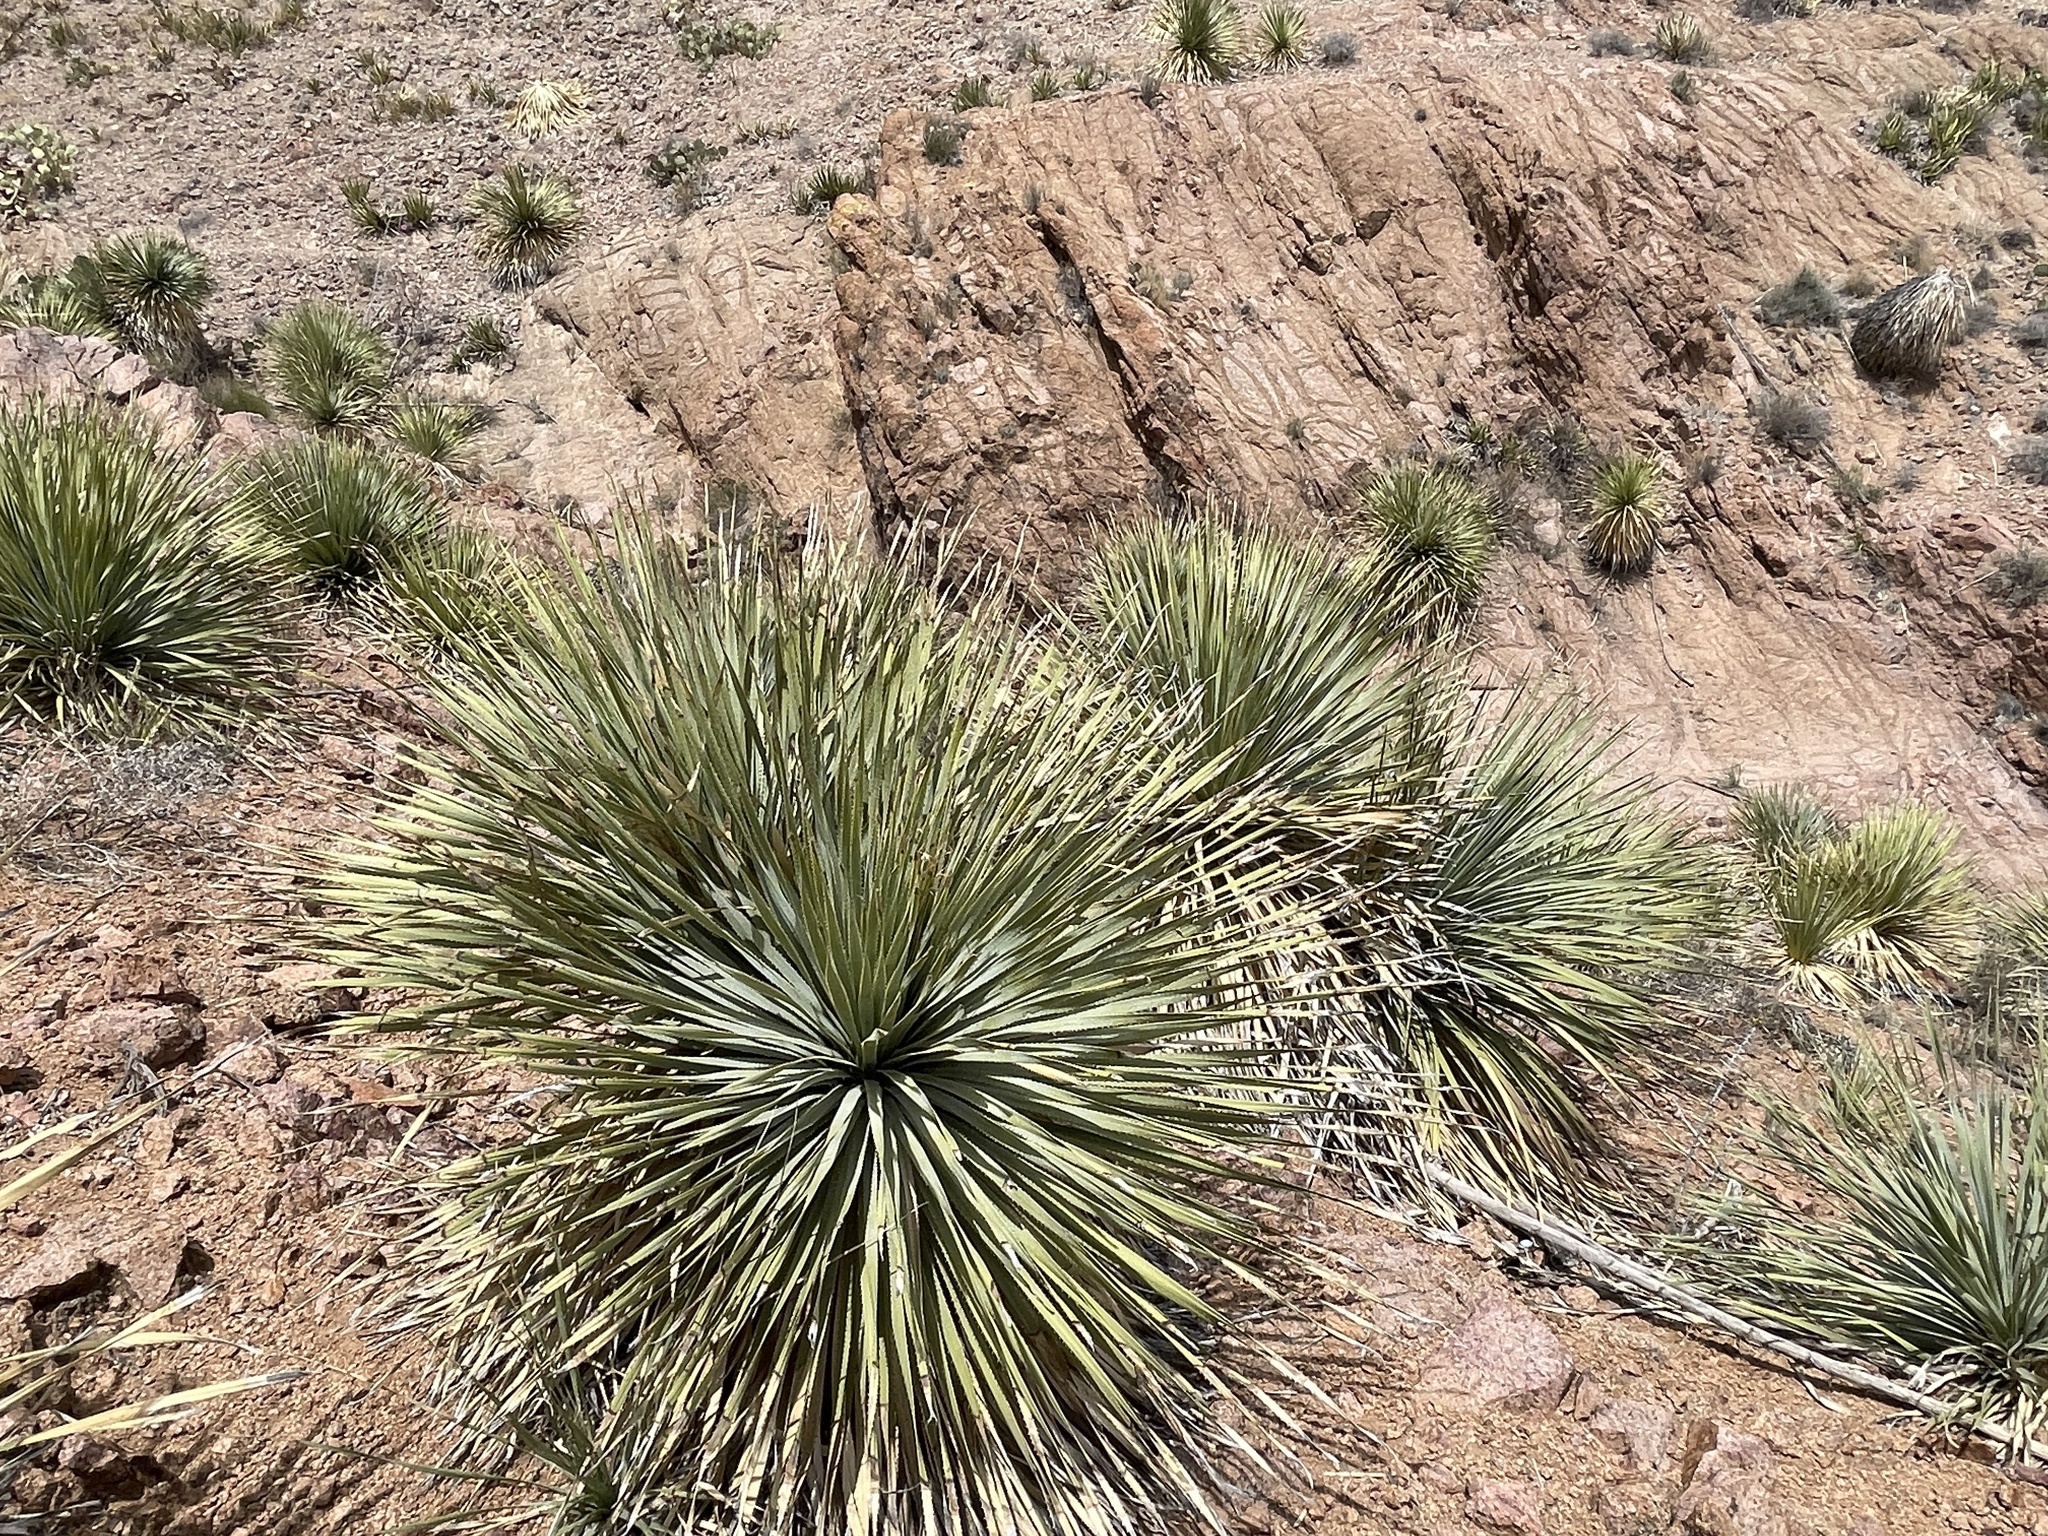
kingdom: Plantae
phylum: Tracheophyta
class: Liliopsida
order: Asparagales
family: Asparagaceae
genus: Dasylirion
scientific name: Dasylirion wheeleri
